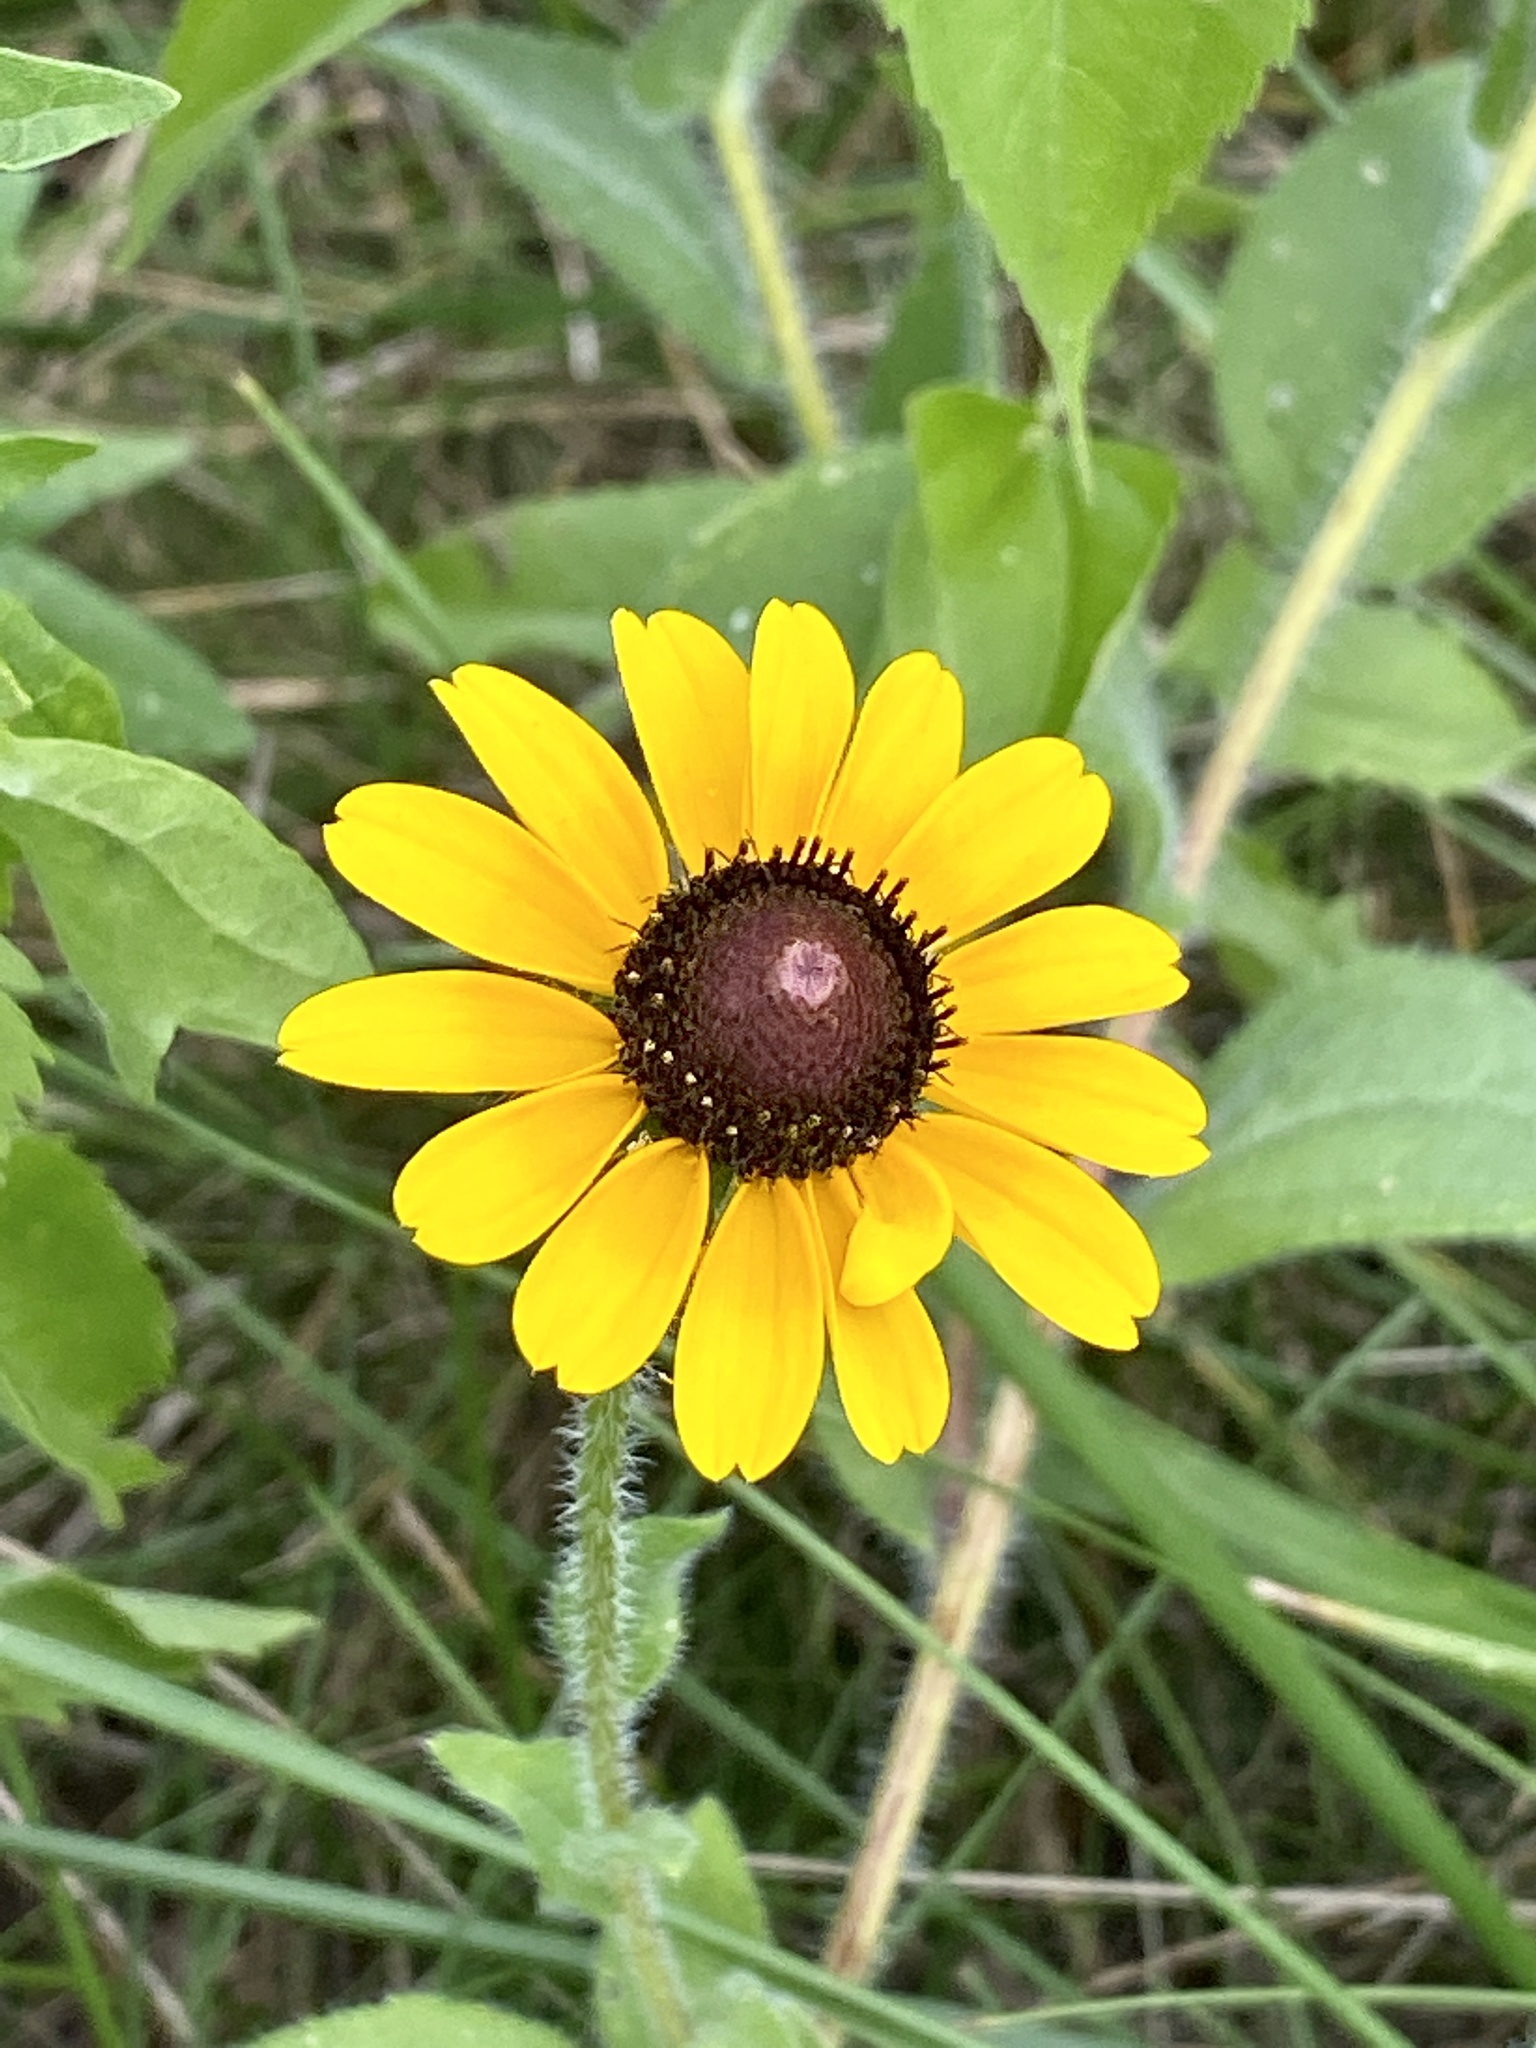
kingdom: Plantae
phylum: Tracheophyta
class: Magnoliopsida
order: Asterales
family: Asteraceae
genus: Rudbeckia
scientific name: Rudbeckia hirta
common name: Black-eyed-susan
